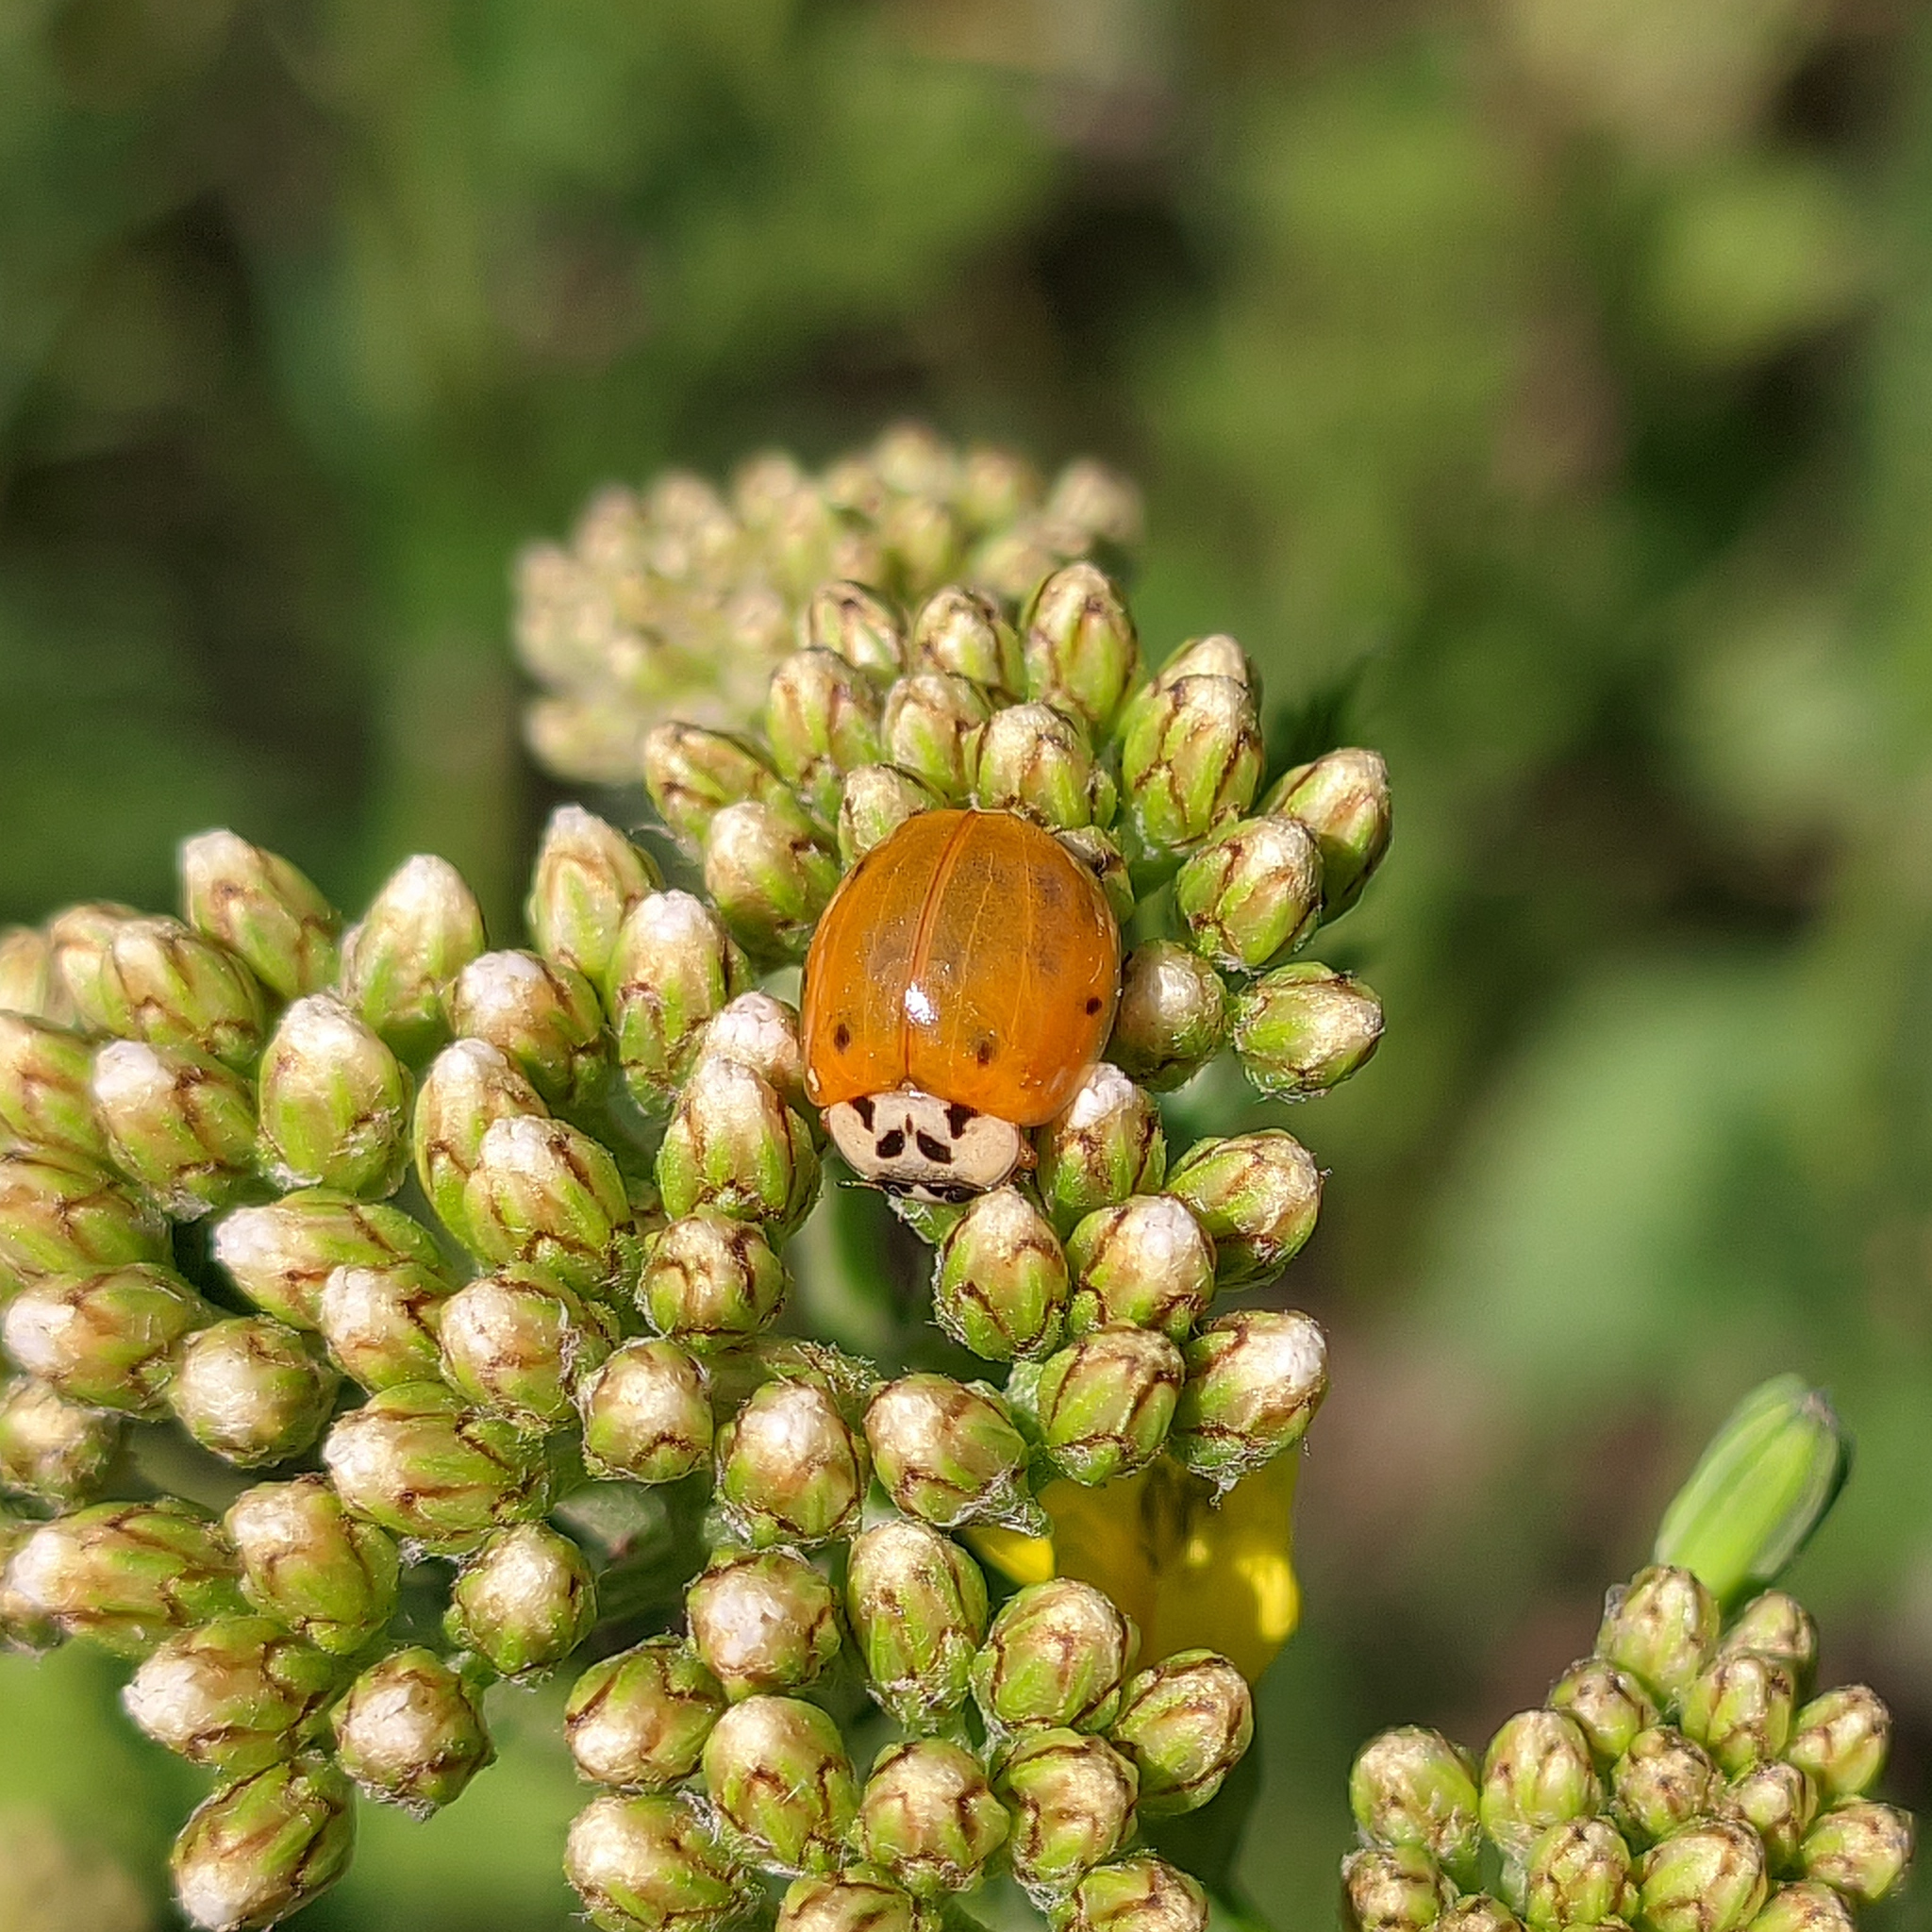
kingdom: Animalia
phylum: Arthropoda
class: Insecta
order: Coleoptera
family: Coccinellidae
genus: Harmonia
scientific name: Harmonia axyridis
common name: Harlequin ladybird
